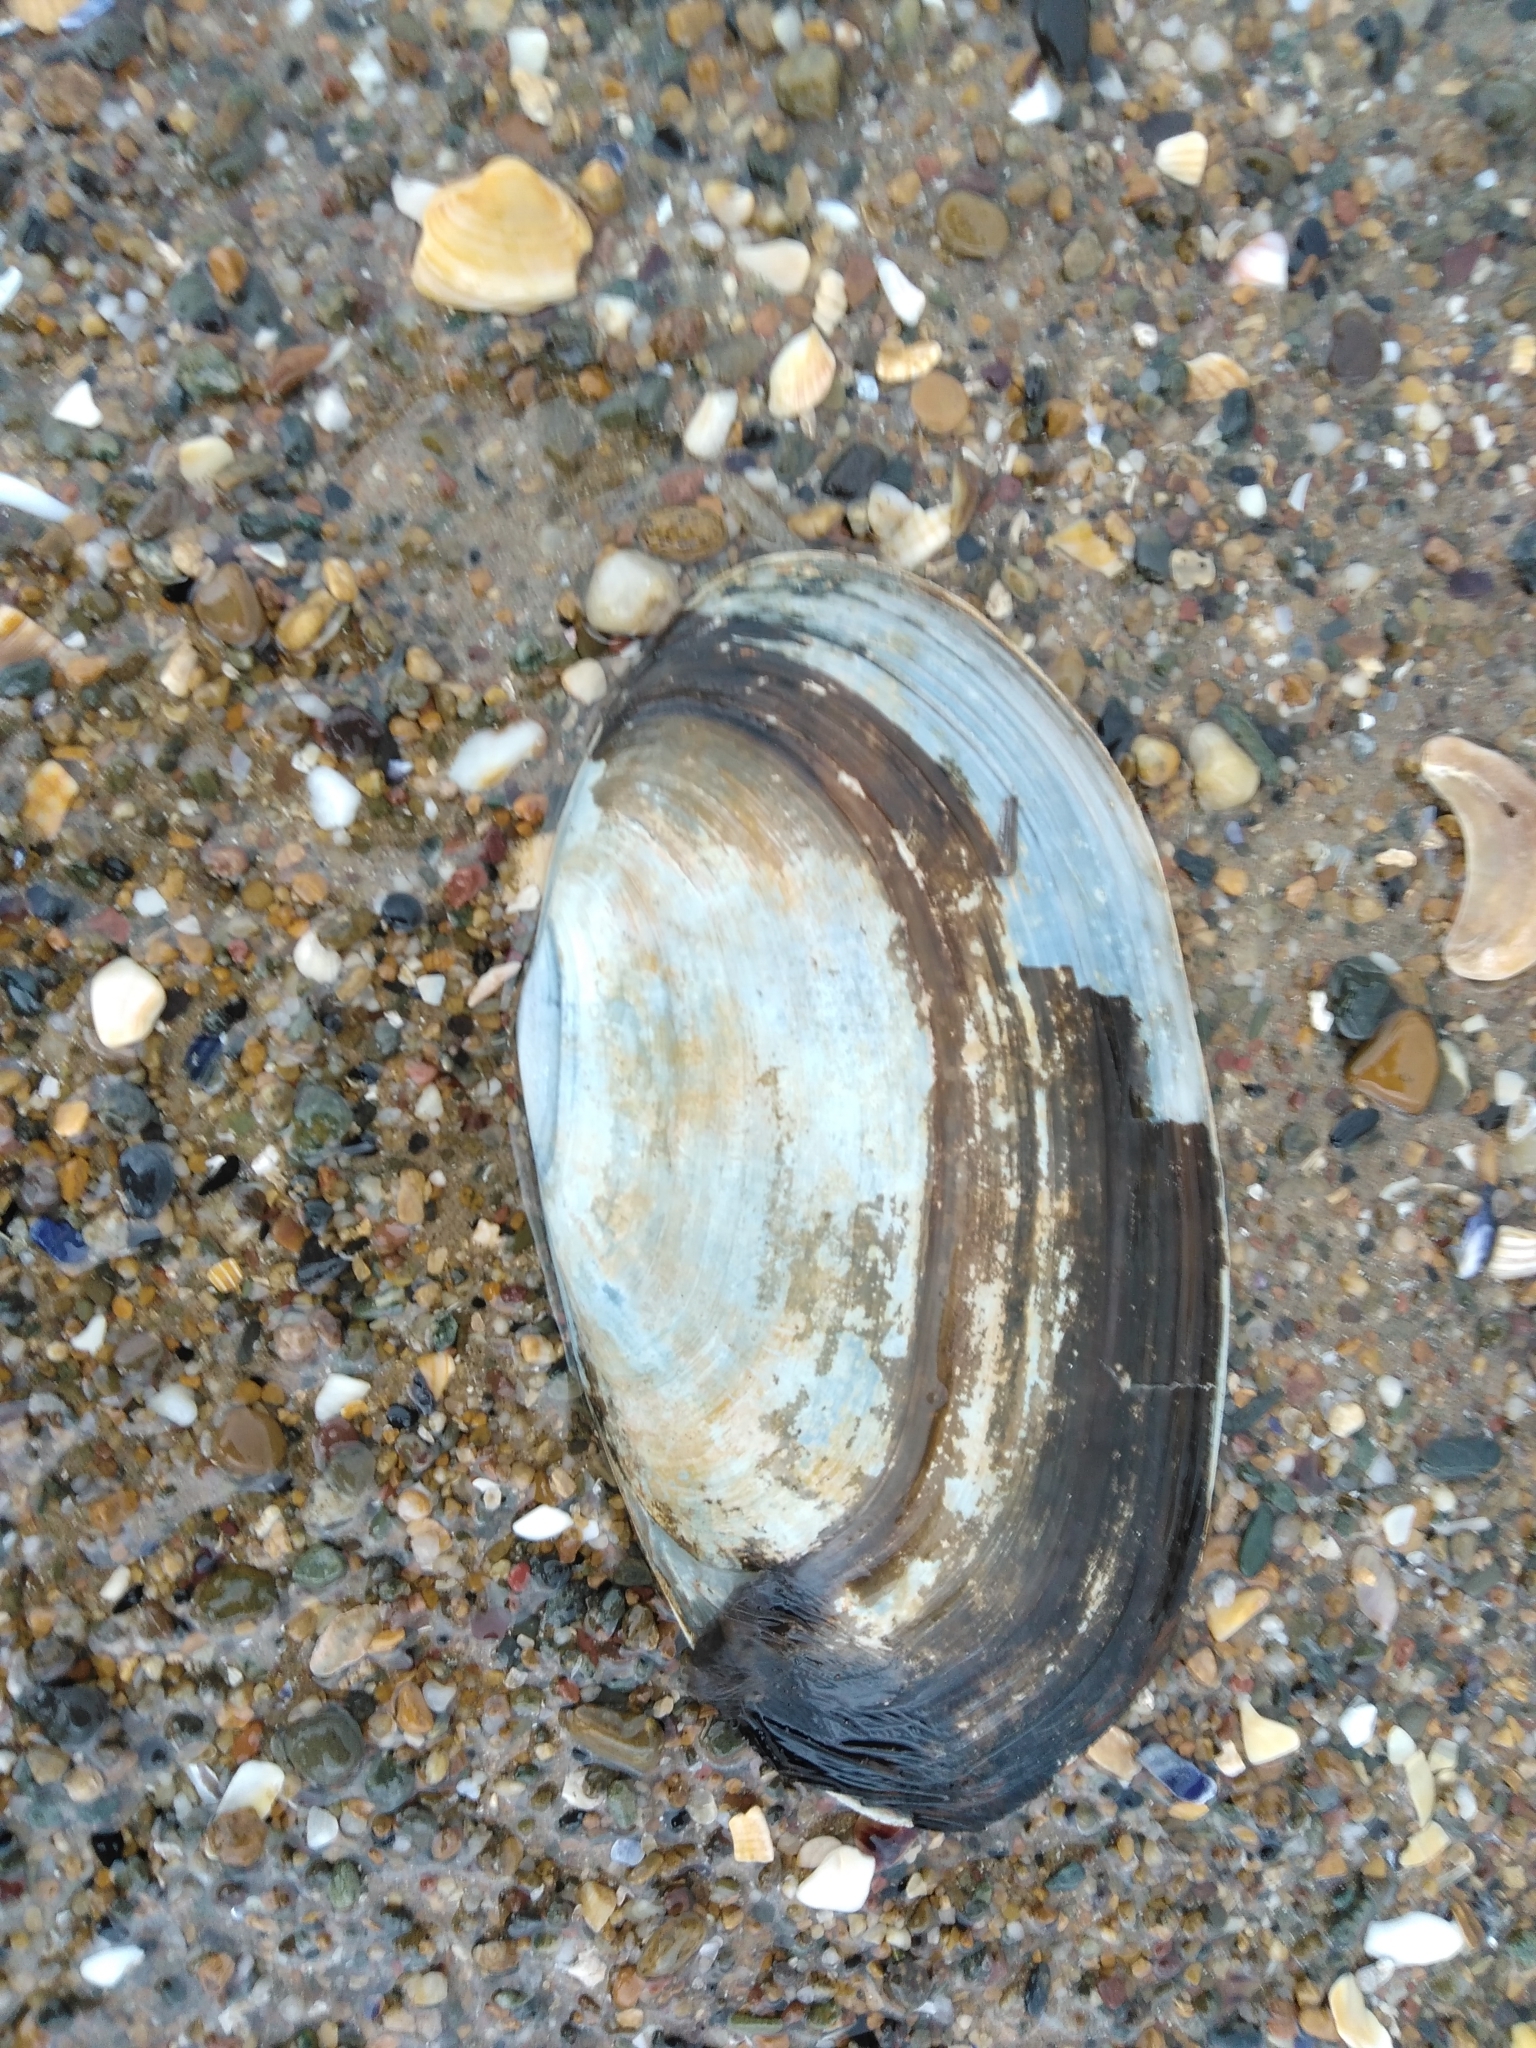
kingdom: Animalia
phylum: Mollusca
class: Bivalvia
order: Venerida
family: Mactridae
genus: Lutraria
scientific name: Lutraria lutraria
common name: Common otter shell
